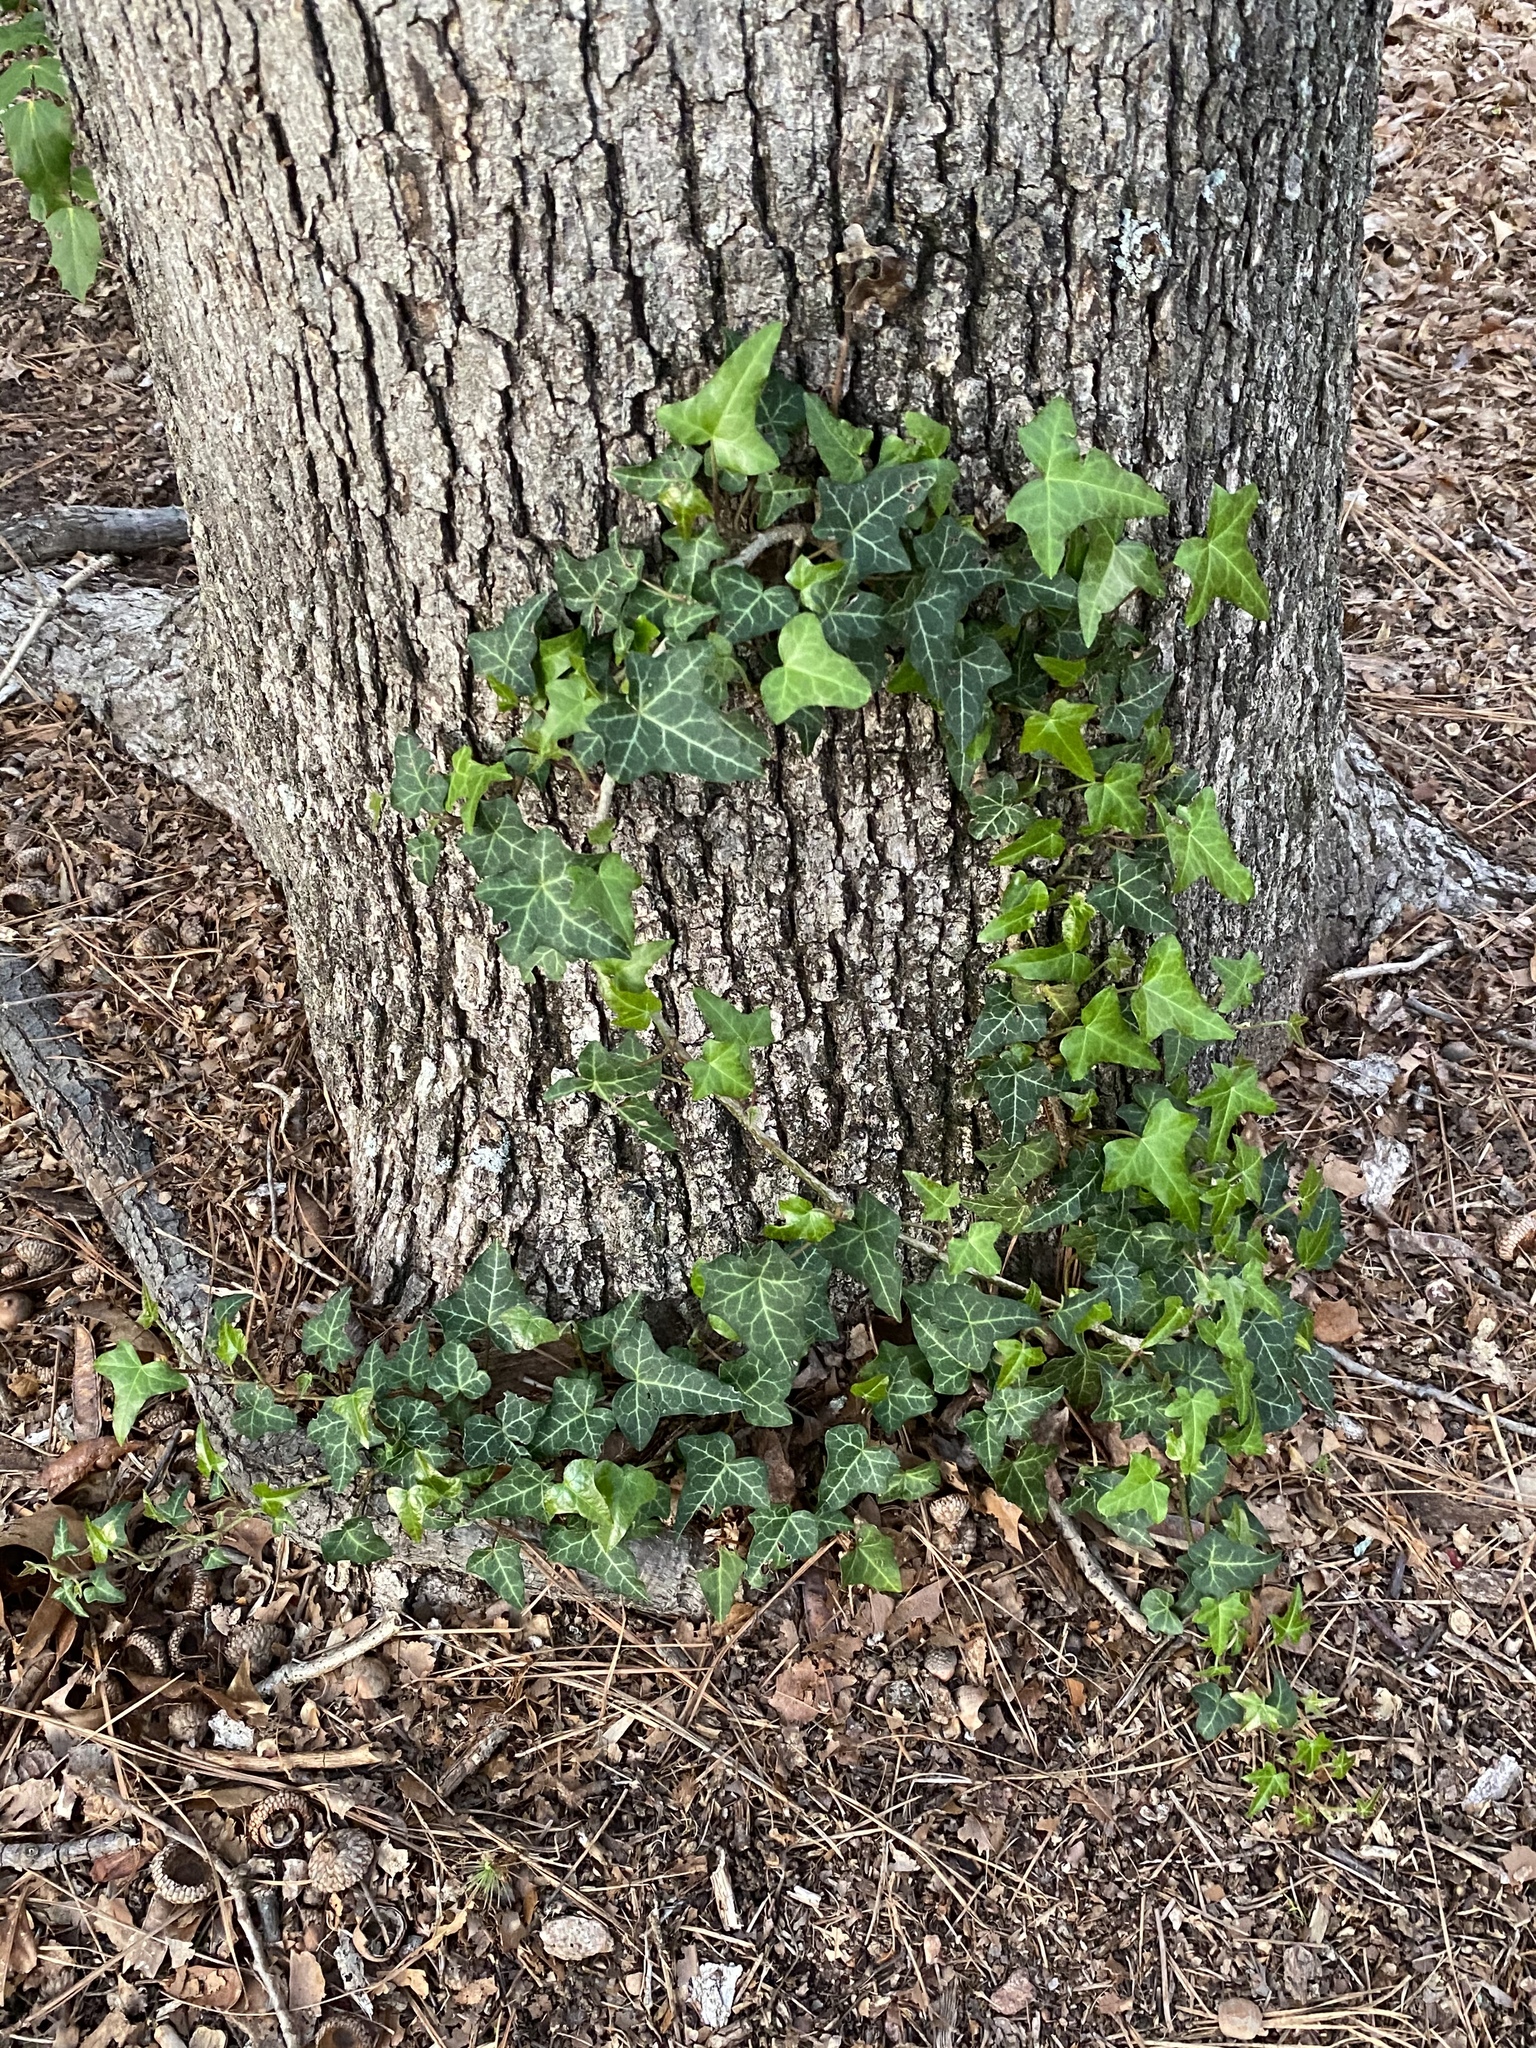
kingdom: Plantae
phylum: Tracheophyta
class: Magnoliopsida
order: Apiales
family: Araliaceae
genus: Hedera
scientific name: Hedera helix
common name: Ivy
